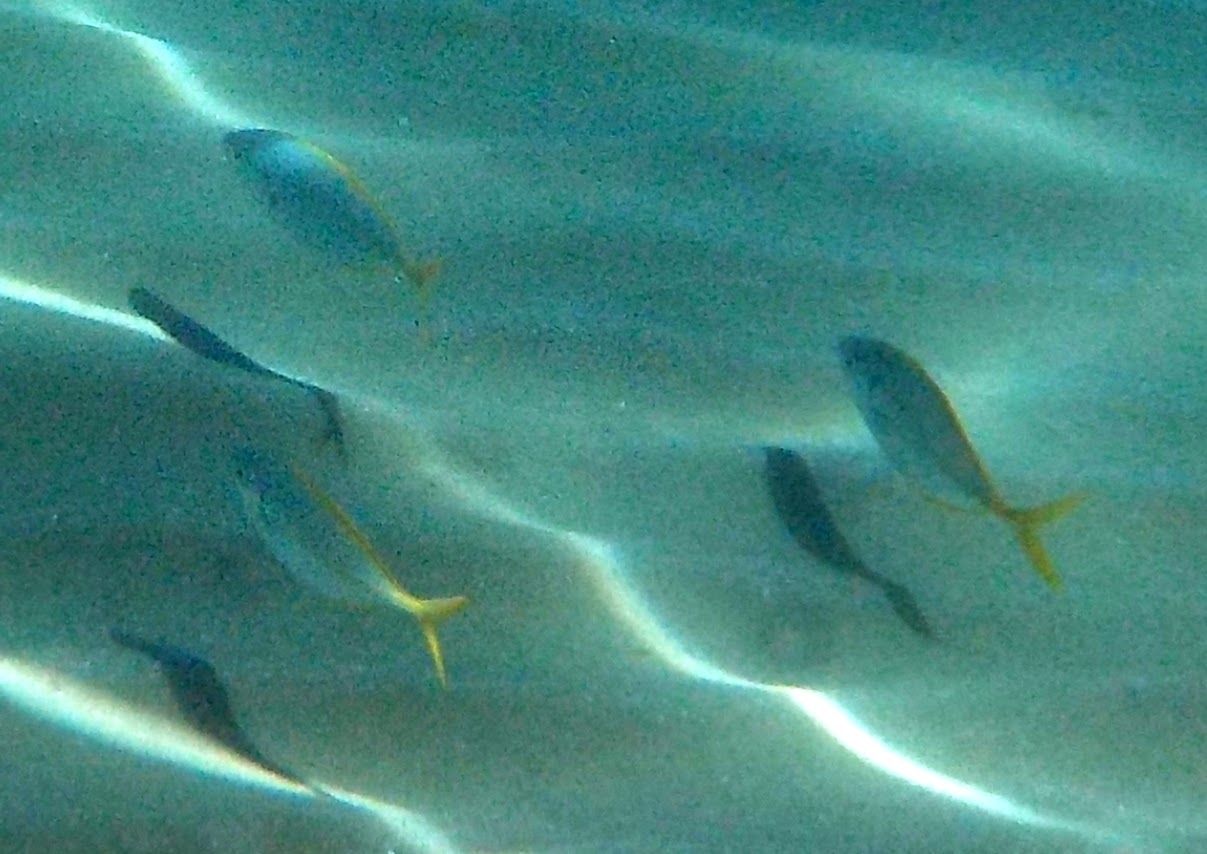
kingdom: Animalia
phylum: Chordata
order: Perciformes
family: Carangidae
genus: Pseudocaranx
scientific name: Pseudocaranx dentex
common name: White trevally
